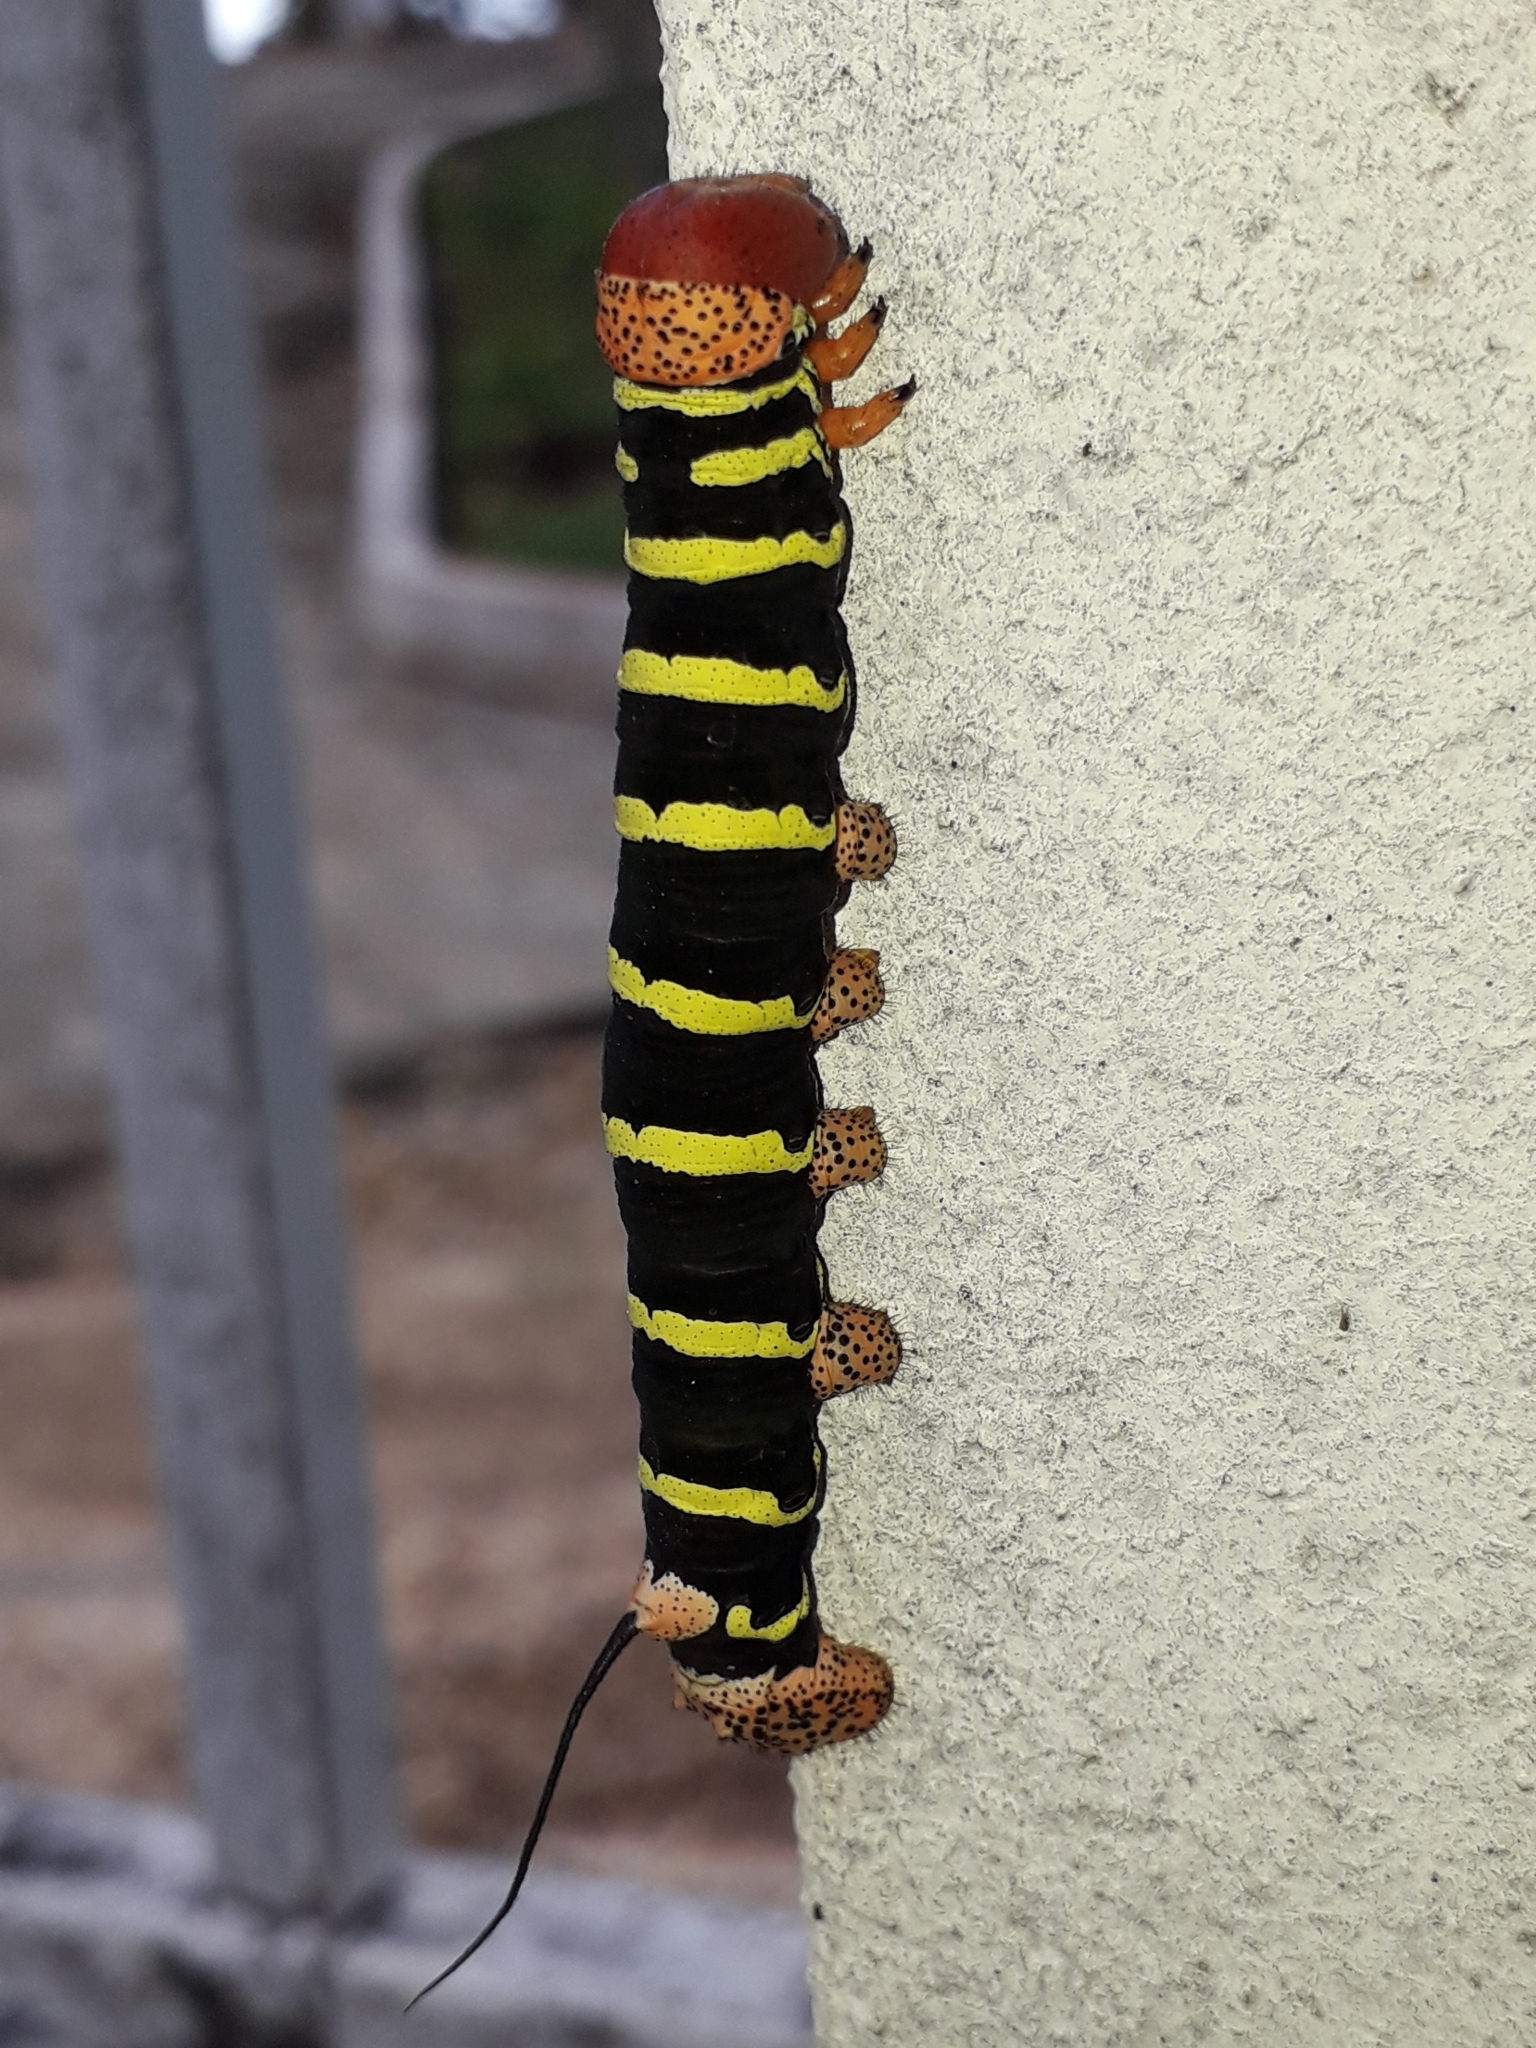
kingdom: Animalia
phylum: Arthropoda
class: Insecta
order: Lepidoptera
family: Sphingidae
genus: Pseudosphinx
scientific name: Pseudosphinx tetrio
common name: Tetrio sphinx
